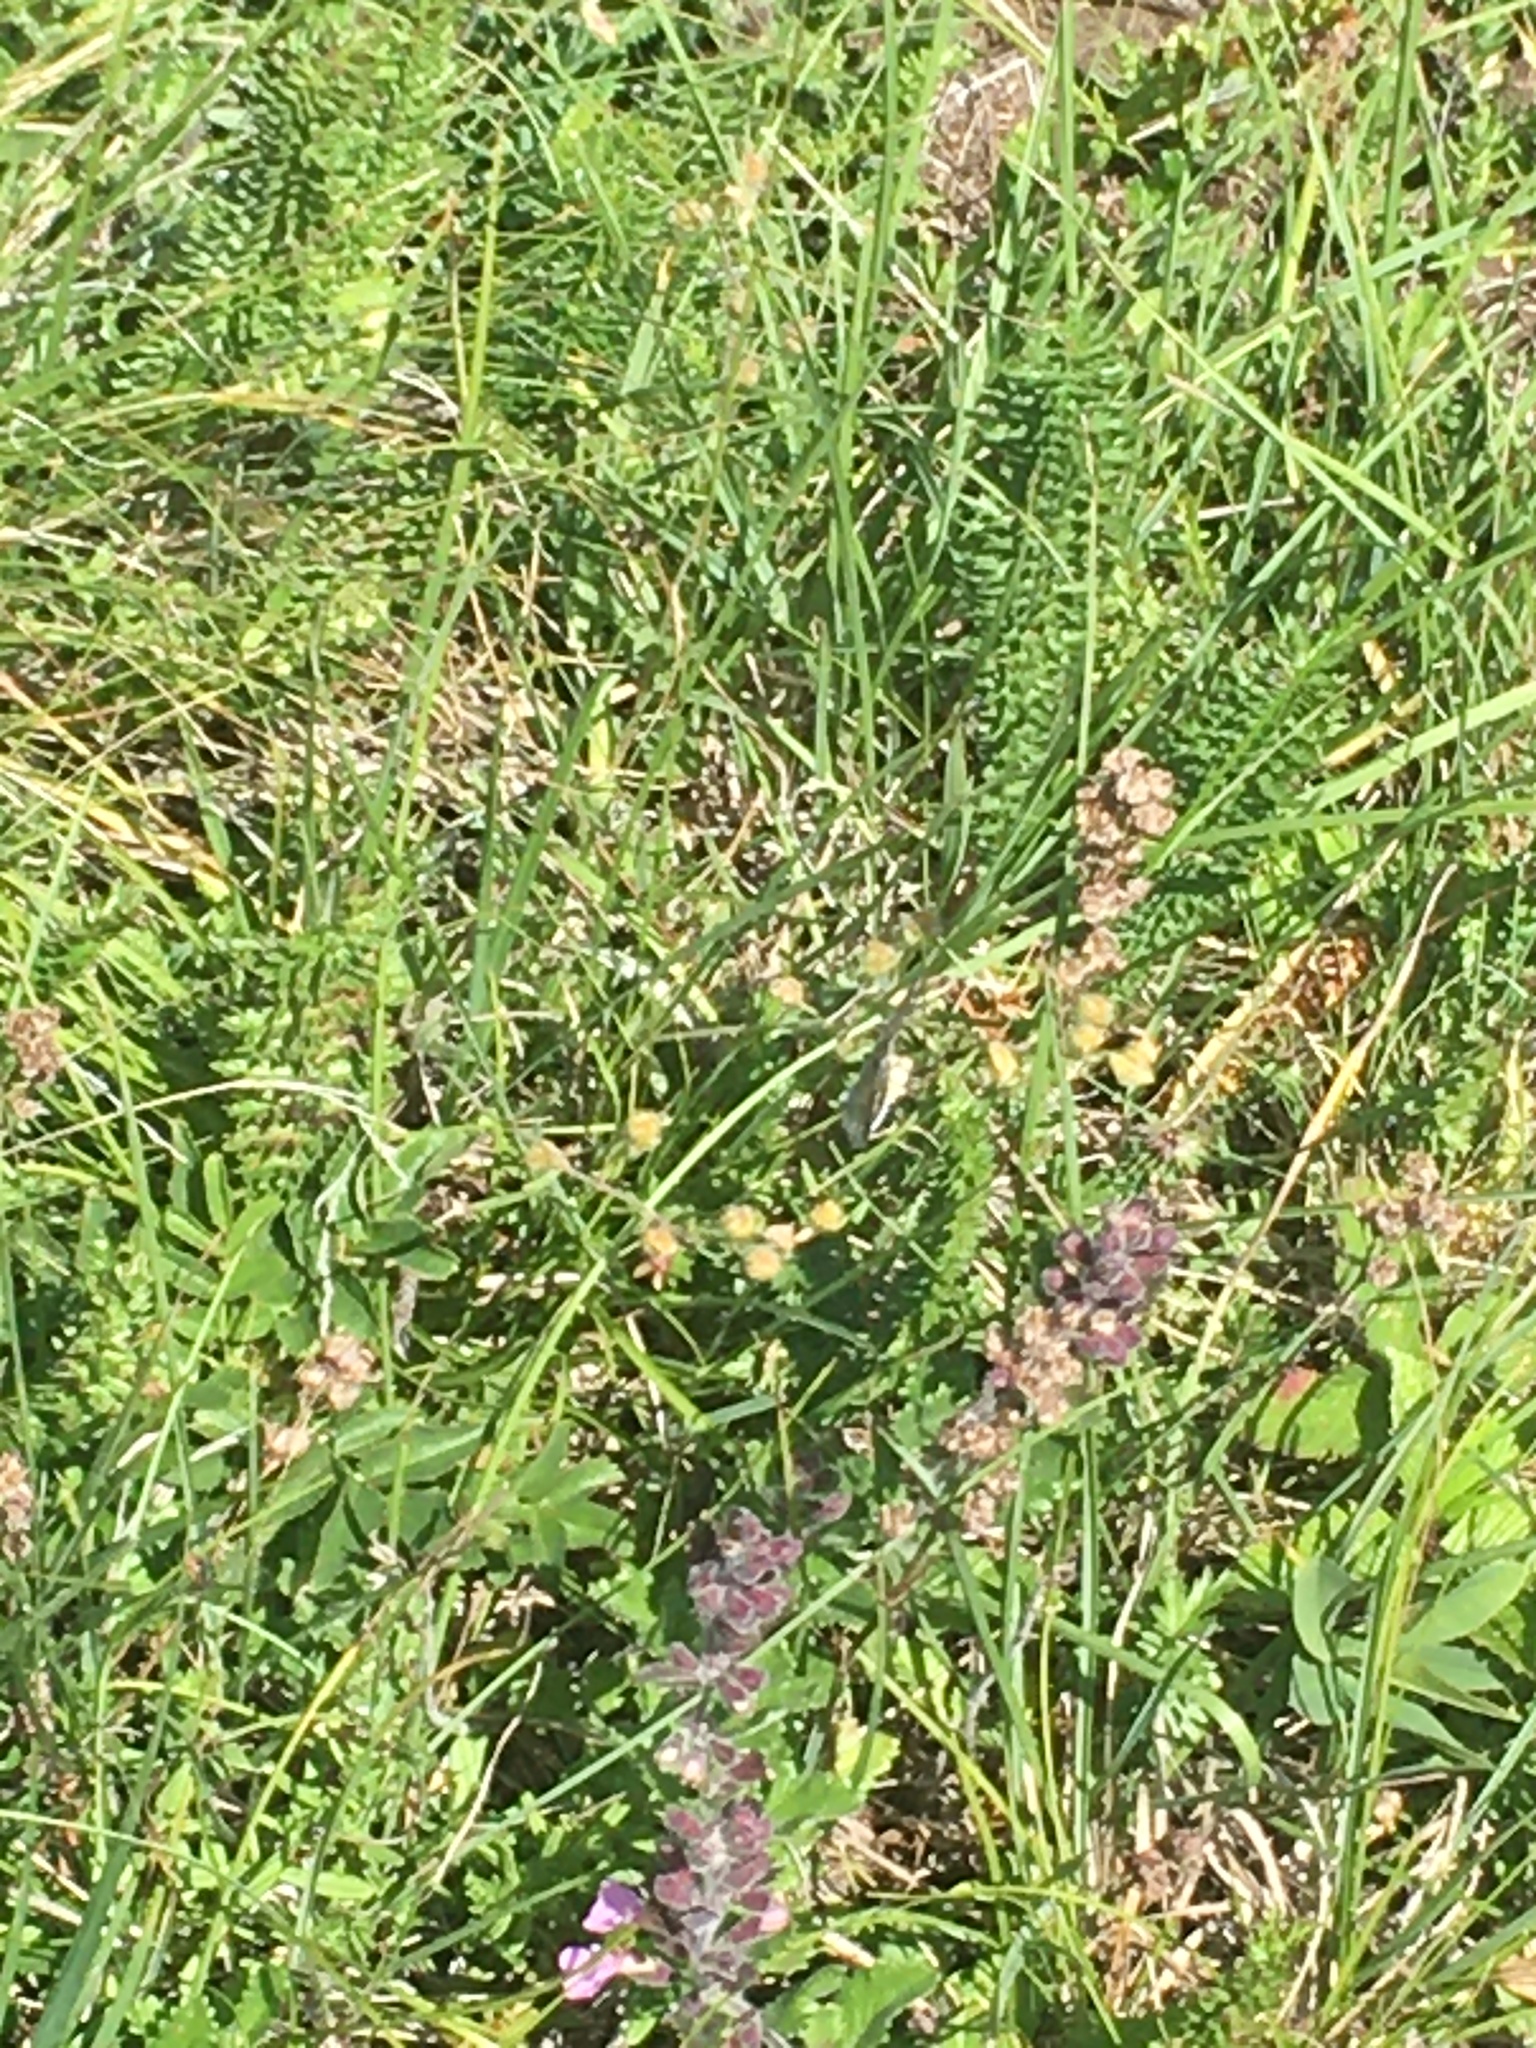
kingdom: Plantae
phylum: Tracheophyta
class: Magnoliopsida
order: Rosales
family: Rosaceae
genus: Filipendula
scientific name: Filipendula vulgaris
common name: Dropwort
